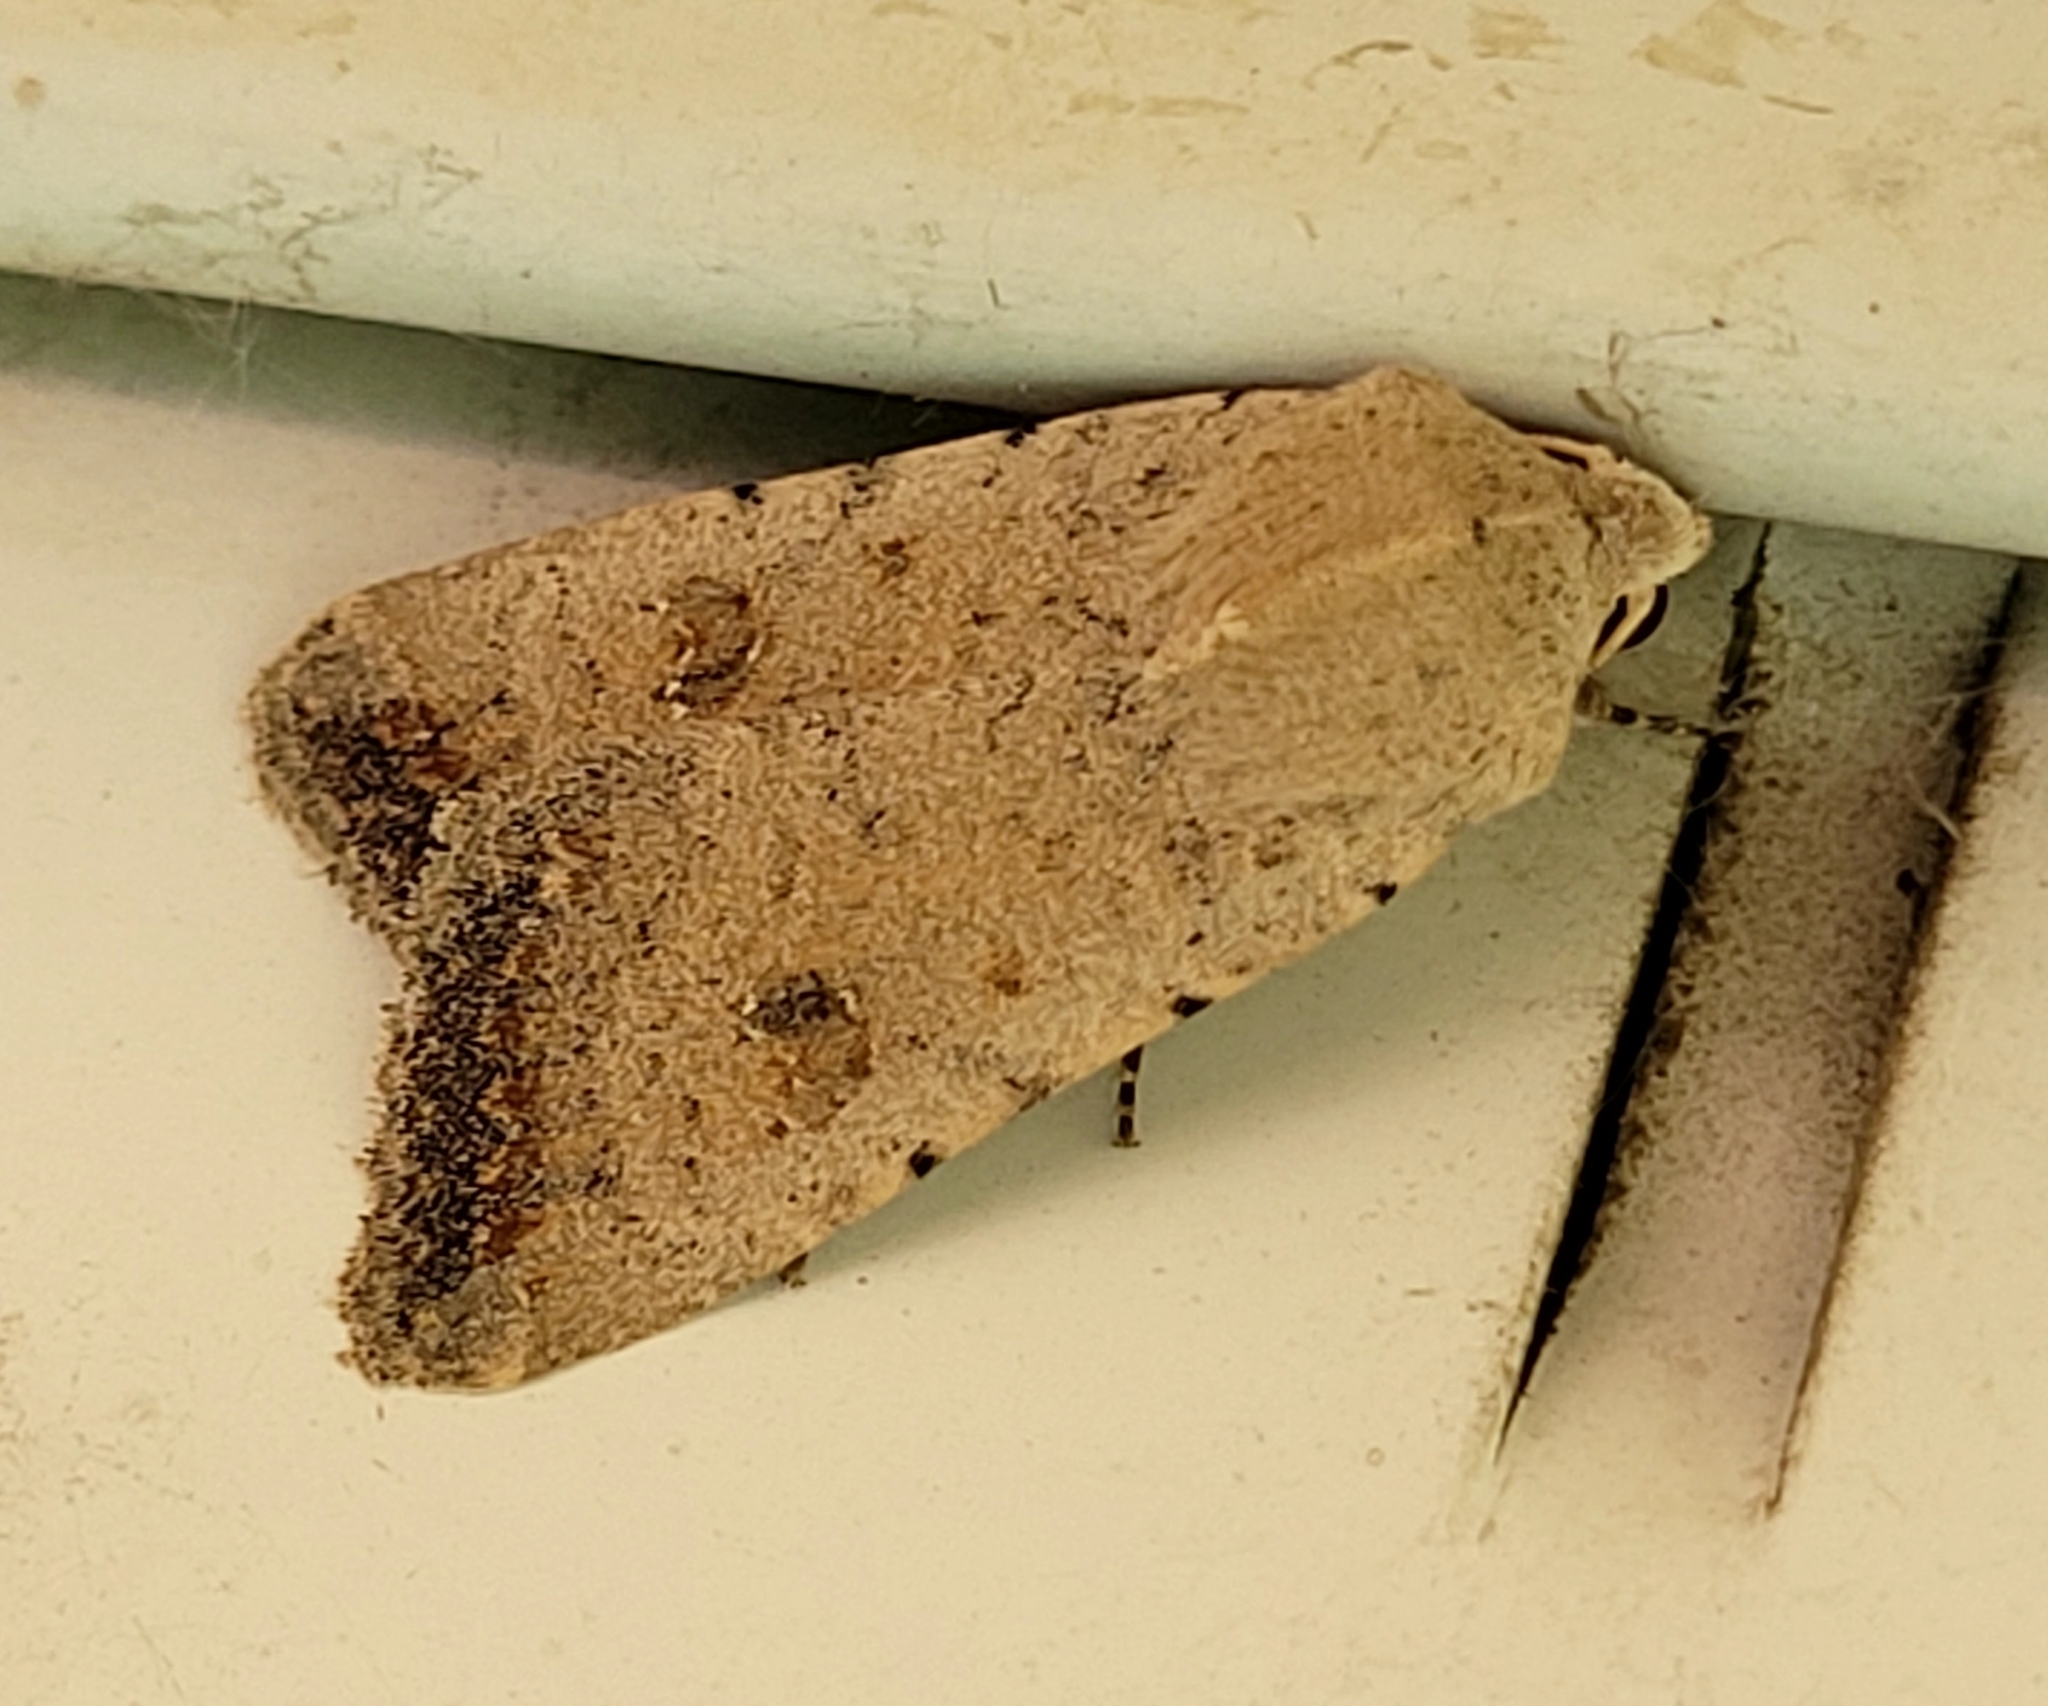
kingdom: Animalia
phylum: Arthropoda
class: Insecta
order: Lepidoptera
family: Noctuidae
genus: Caradrina
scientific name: Caradrina montana
